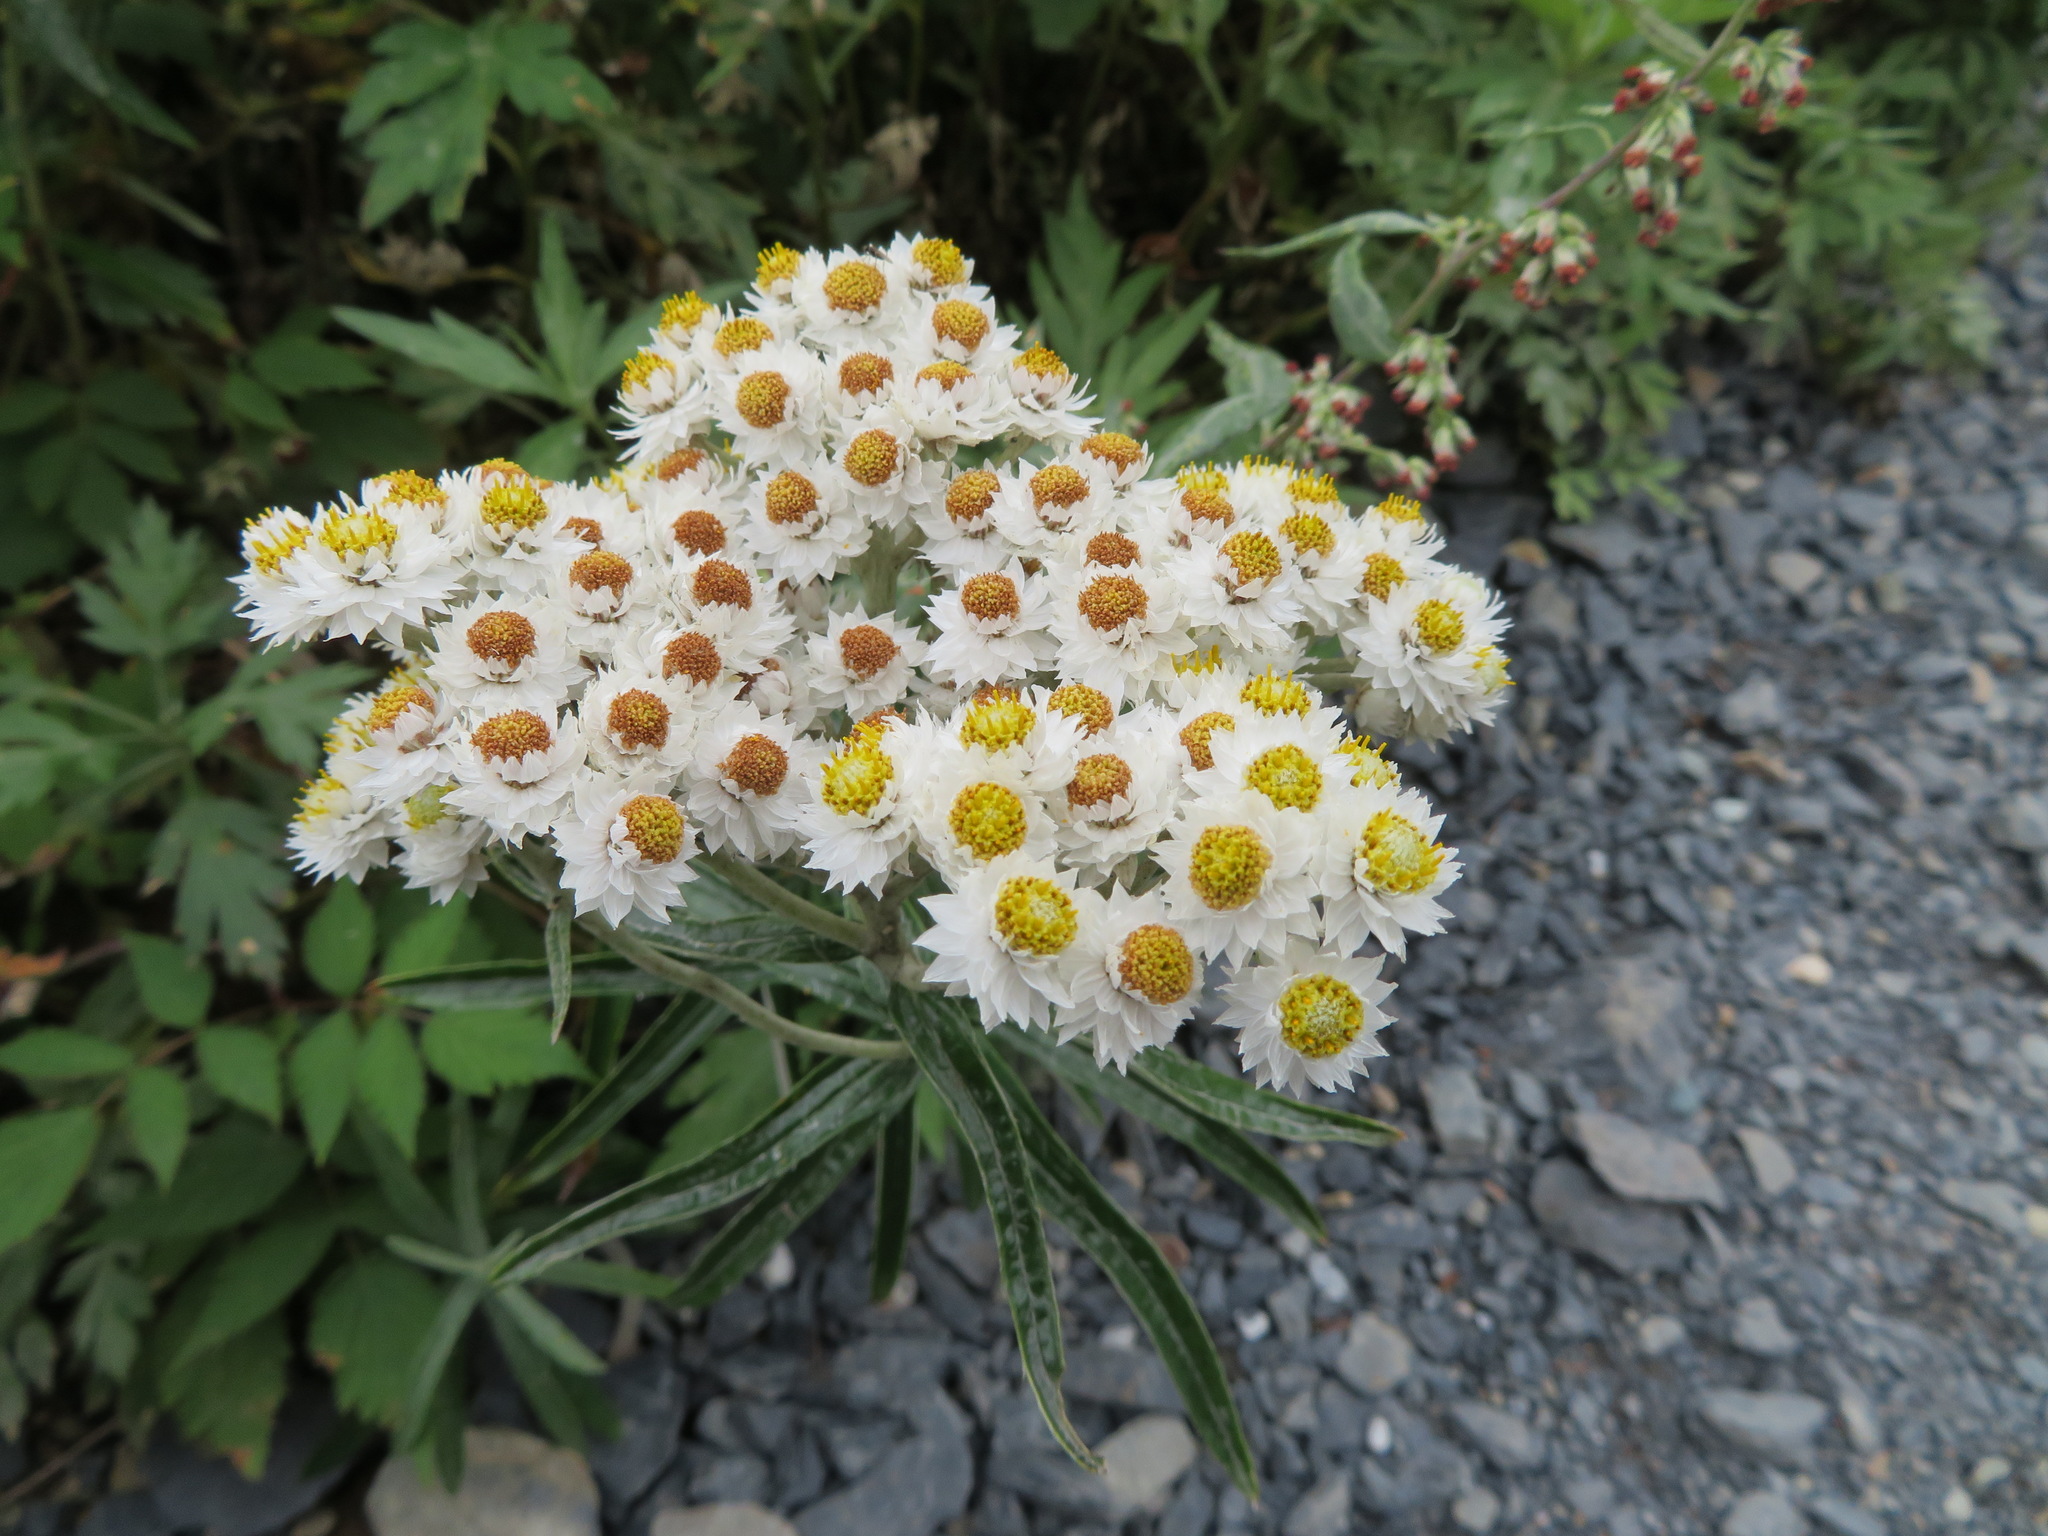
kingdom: Plantae
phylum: Tracheophyta
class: Magnoliopsida
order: Asterales
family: Asteraceae
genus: Anaphalis
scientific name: Anaphalis margaritacea
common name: Pearly everlasting
